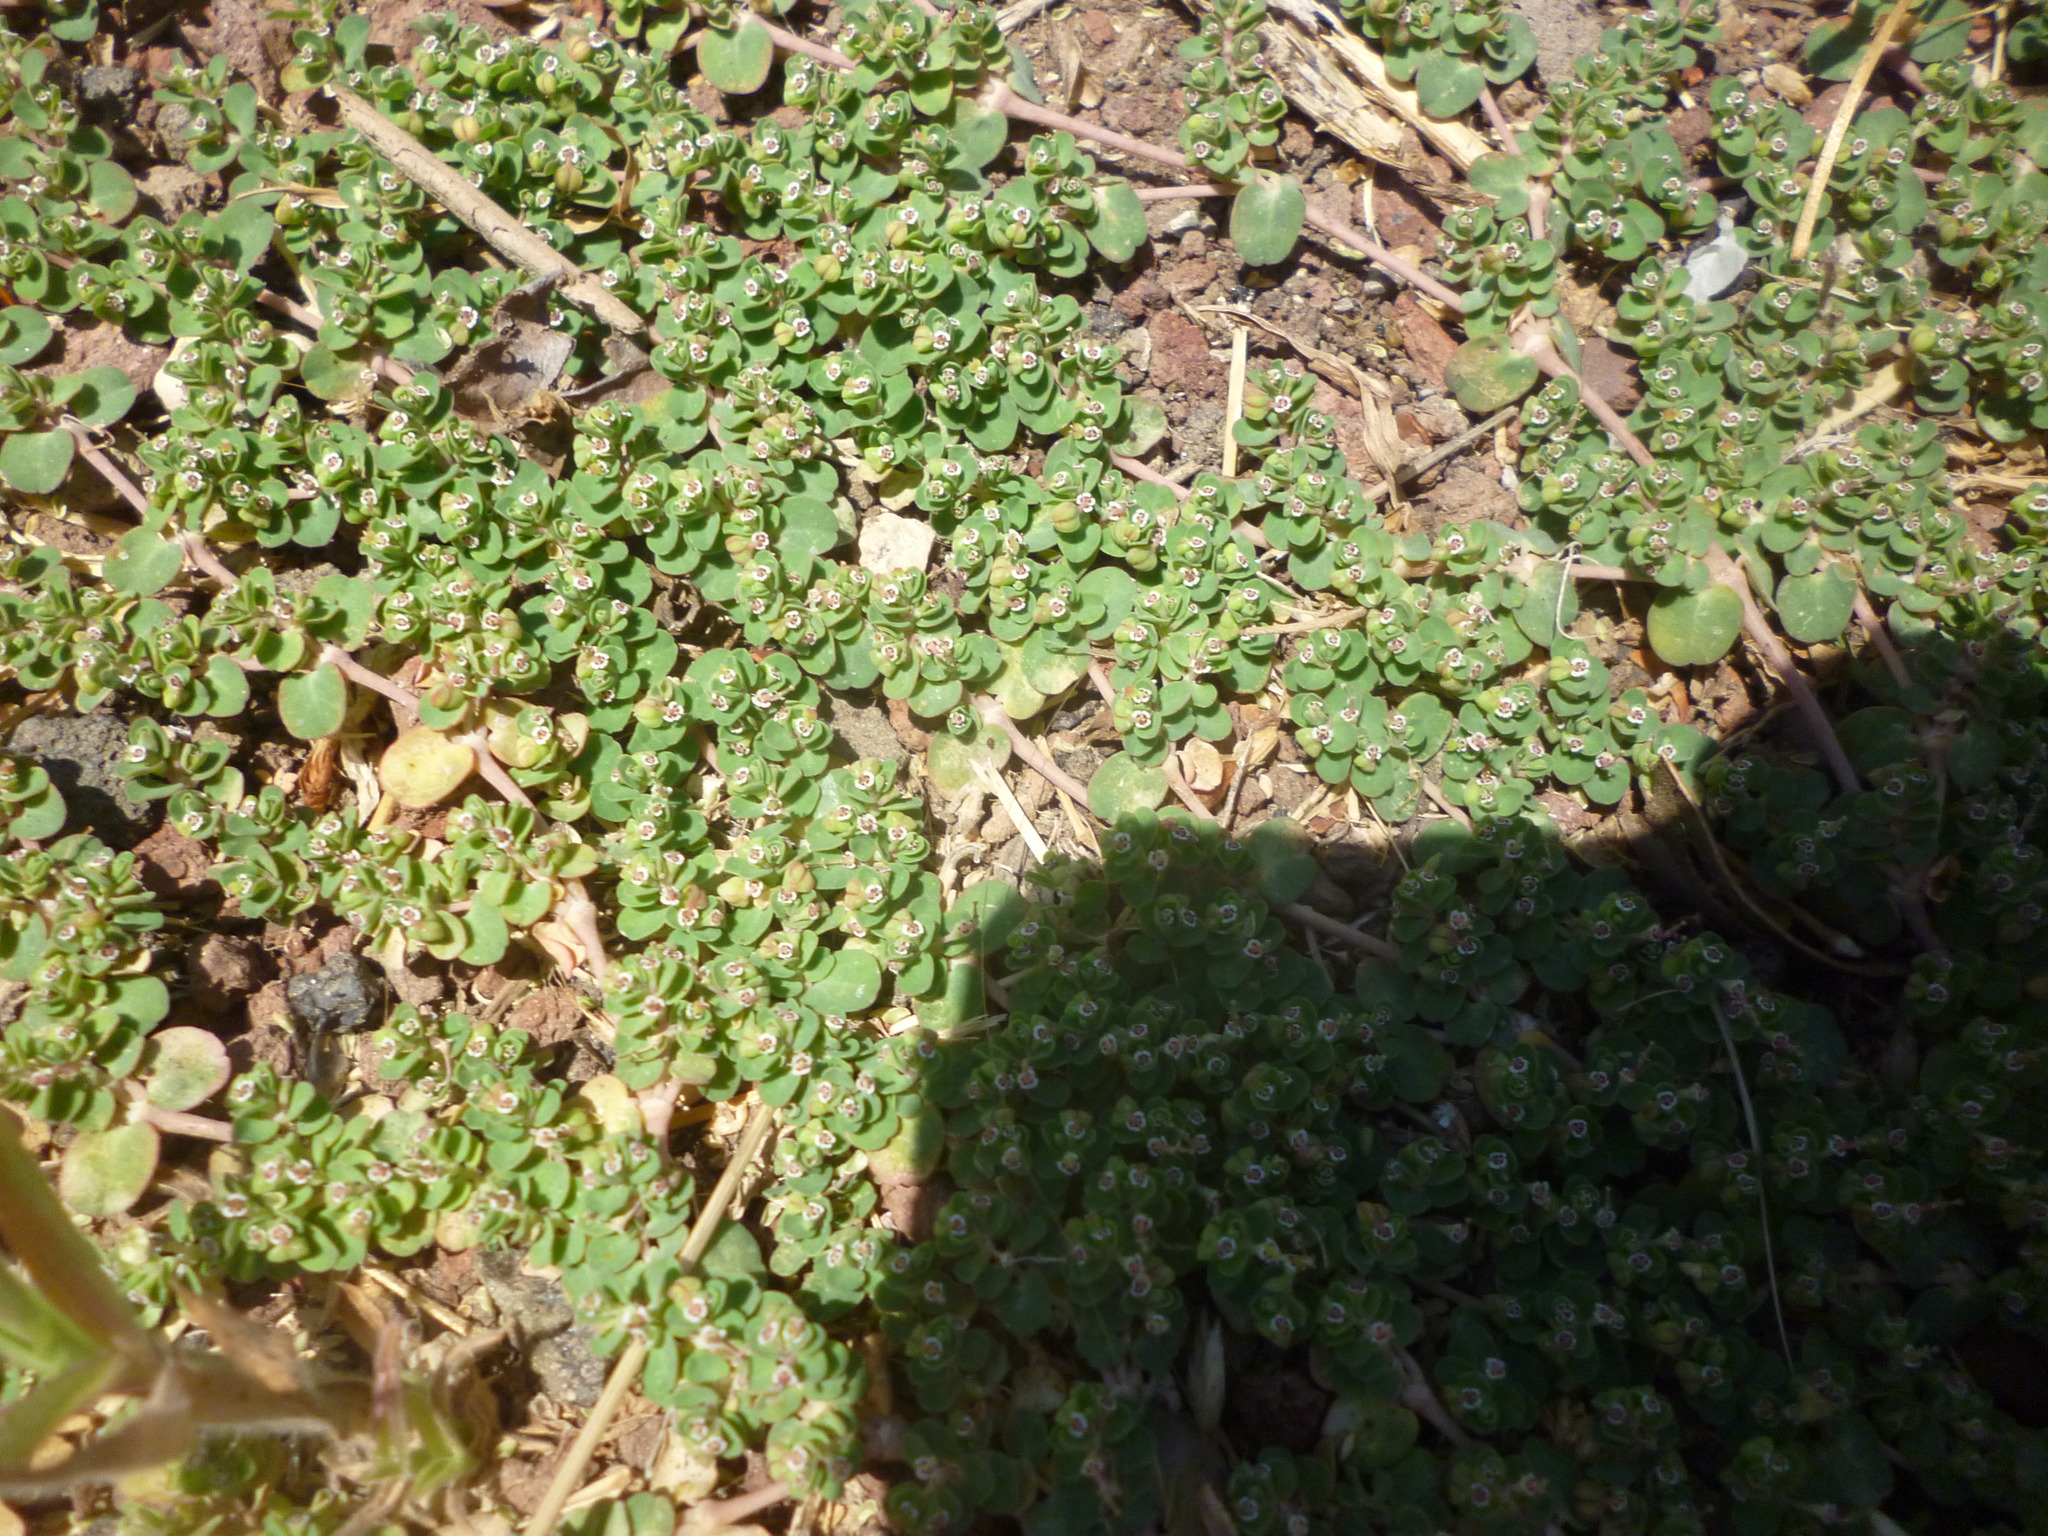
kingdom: Plantae
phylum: Tracheophyta
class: Magnoliopsida
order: Malpighiales
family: Euphorbiaceae
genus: Euphorbia
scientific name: Euphorbia serpens
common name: Matted sandmat
